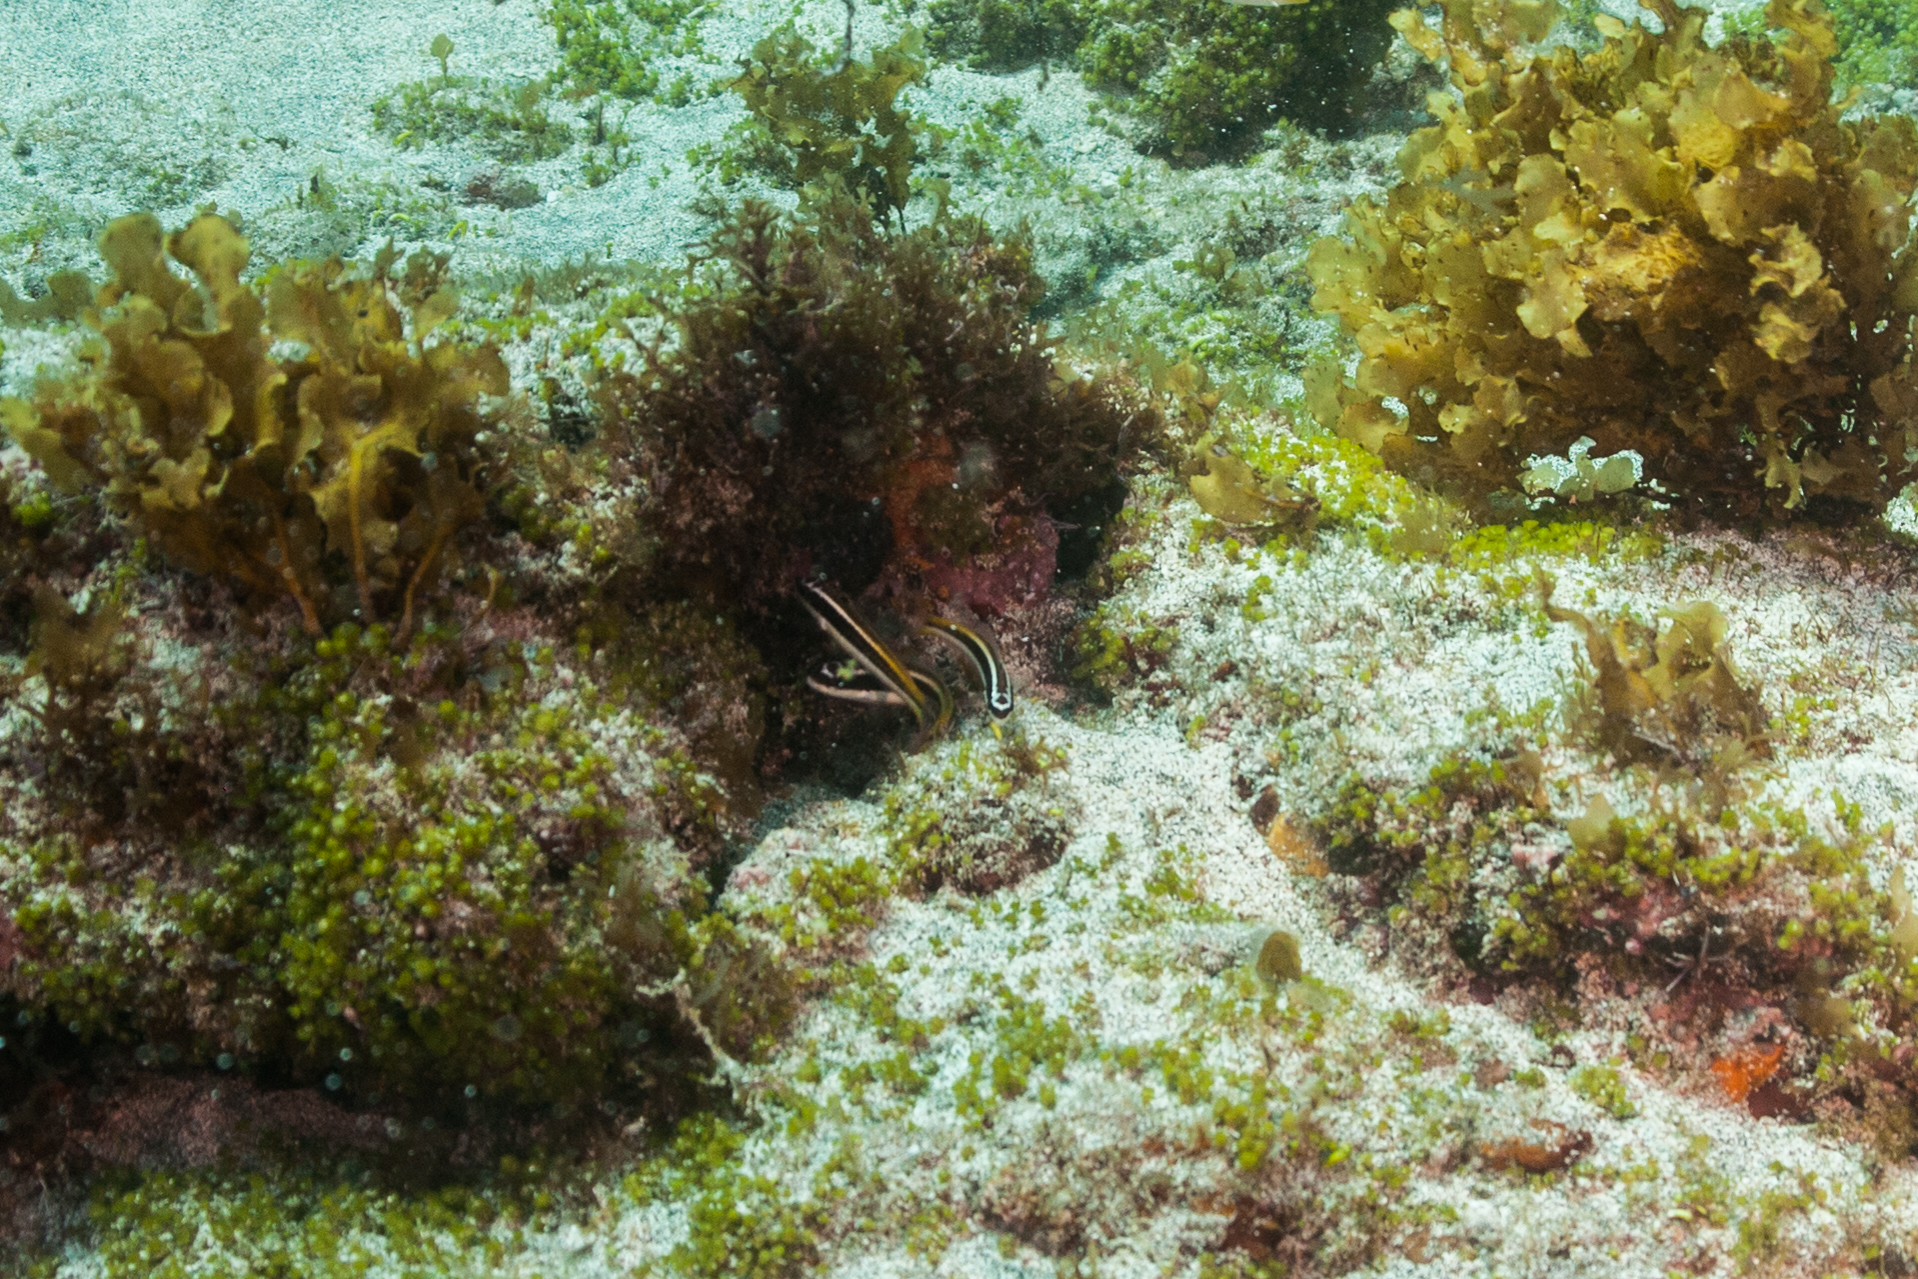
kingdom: Animalia
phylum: Chordata
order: Perciformes
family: Labridae
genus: Thalassoma
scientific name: Thalassoma noronhanum
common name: Noronha wrasse
